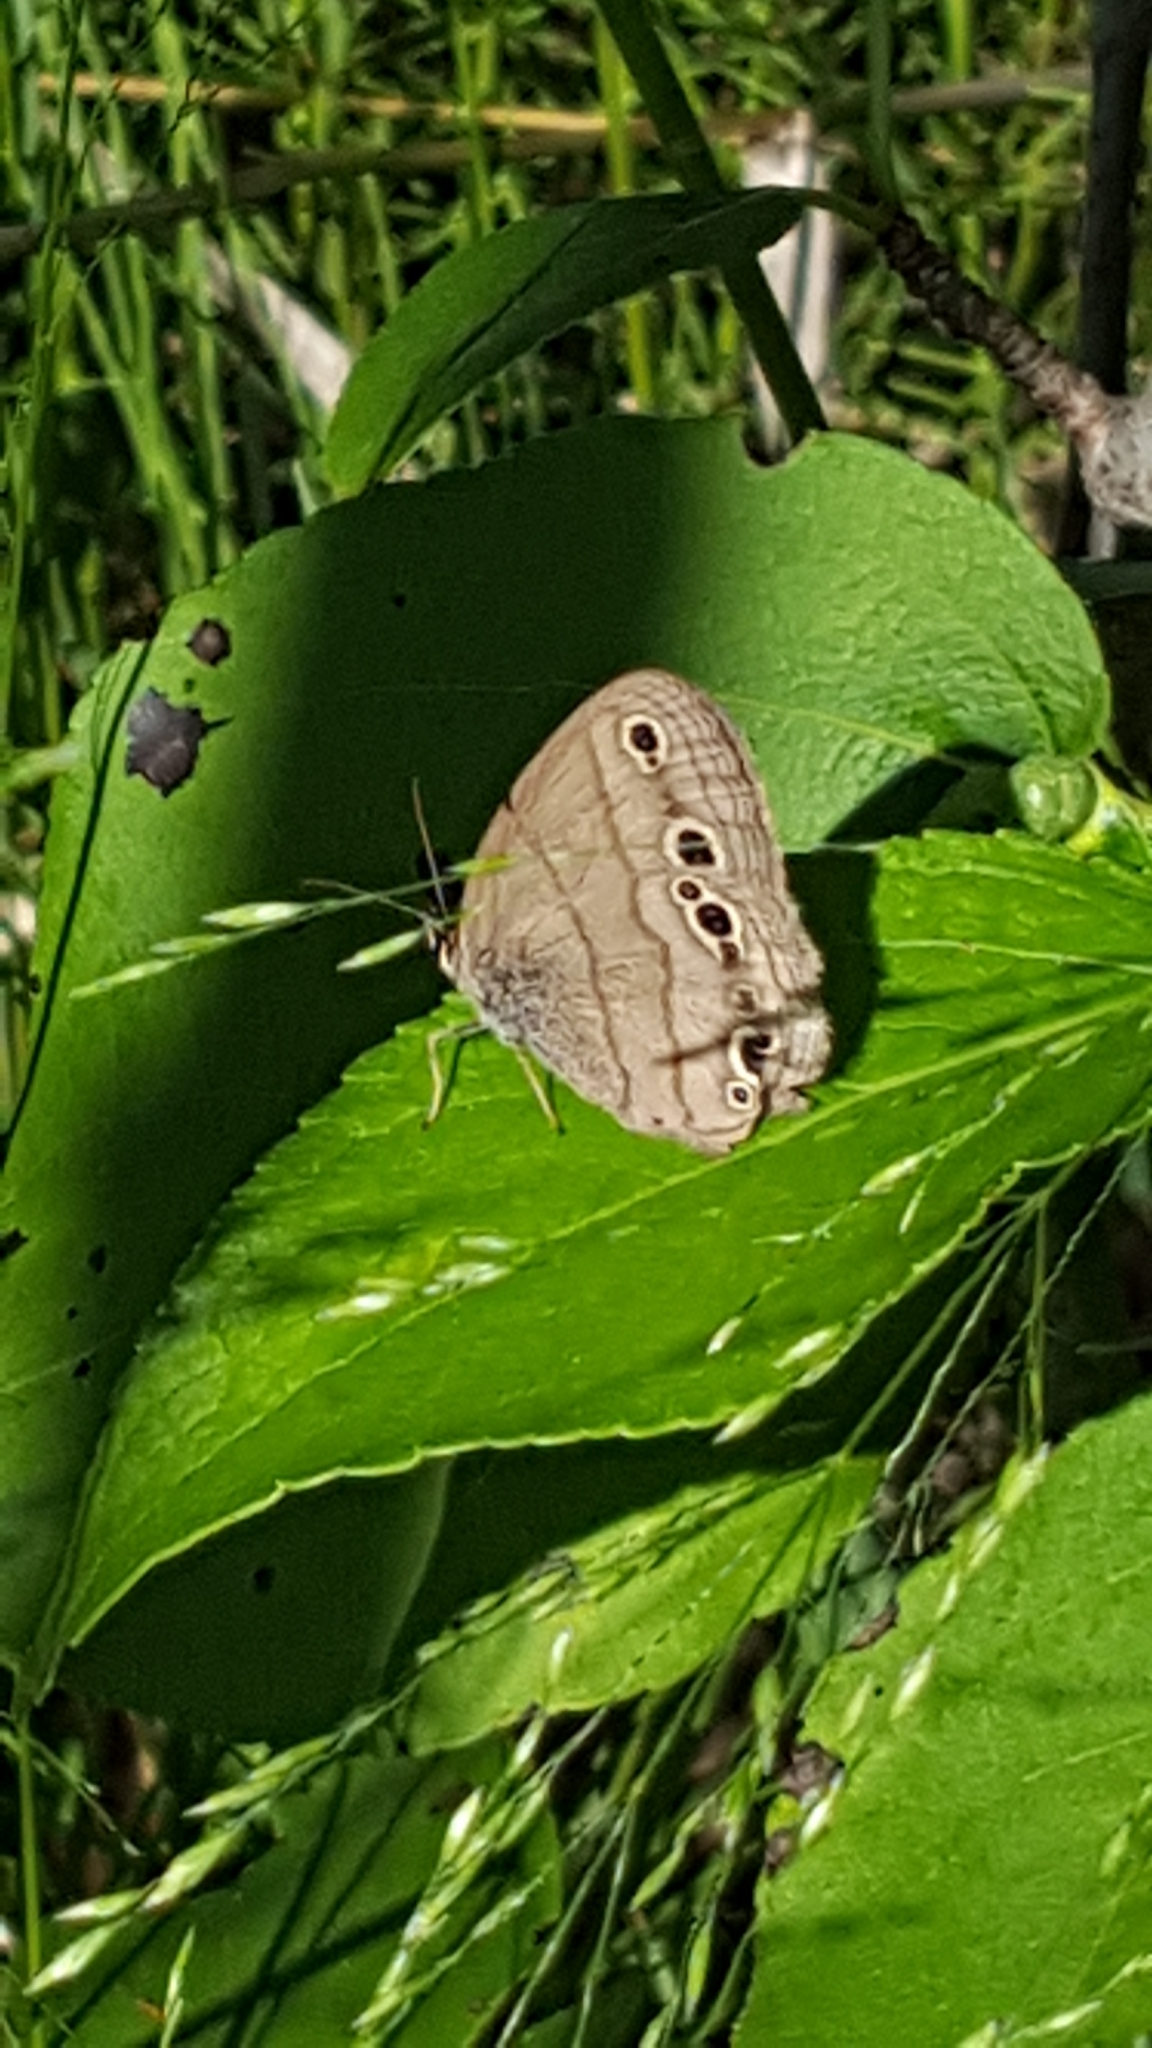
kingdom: Animalia
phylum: Arthropoda
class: Insecta
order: Lepidoptera
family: Nymphalidae
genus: Euptychia
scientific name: Euptychia cymela
